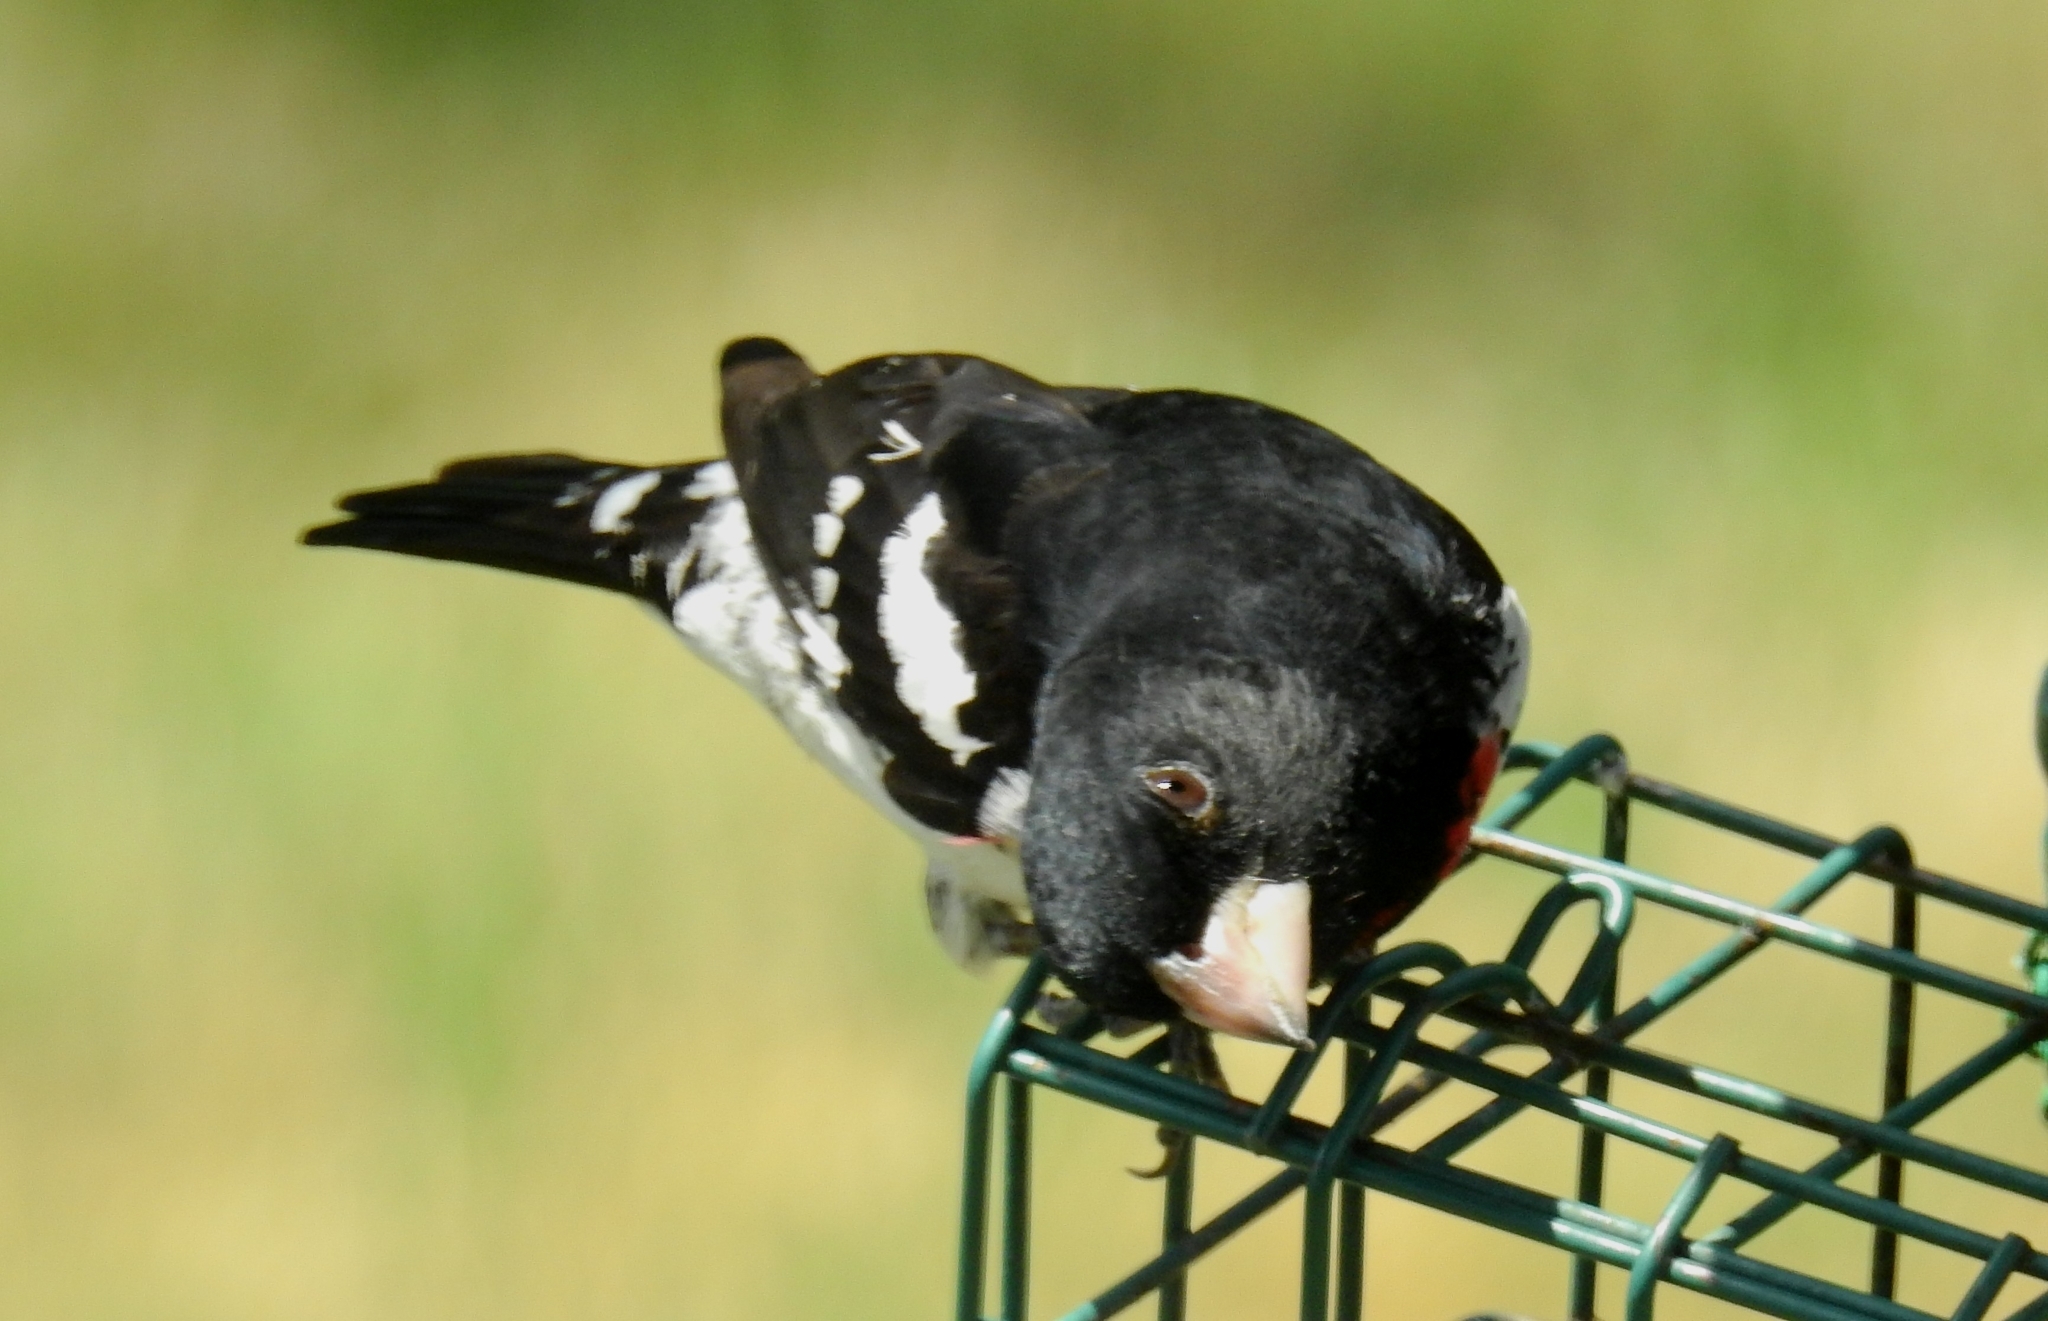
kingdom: Animalia
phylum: Chordata
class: Aves
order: Passeriformes
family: Cardinalidae
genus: Pheucticus
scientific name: Pheucticus ludovicianus
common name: Rose-breasted grosbeak
